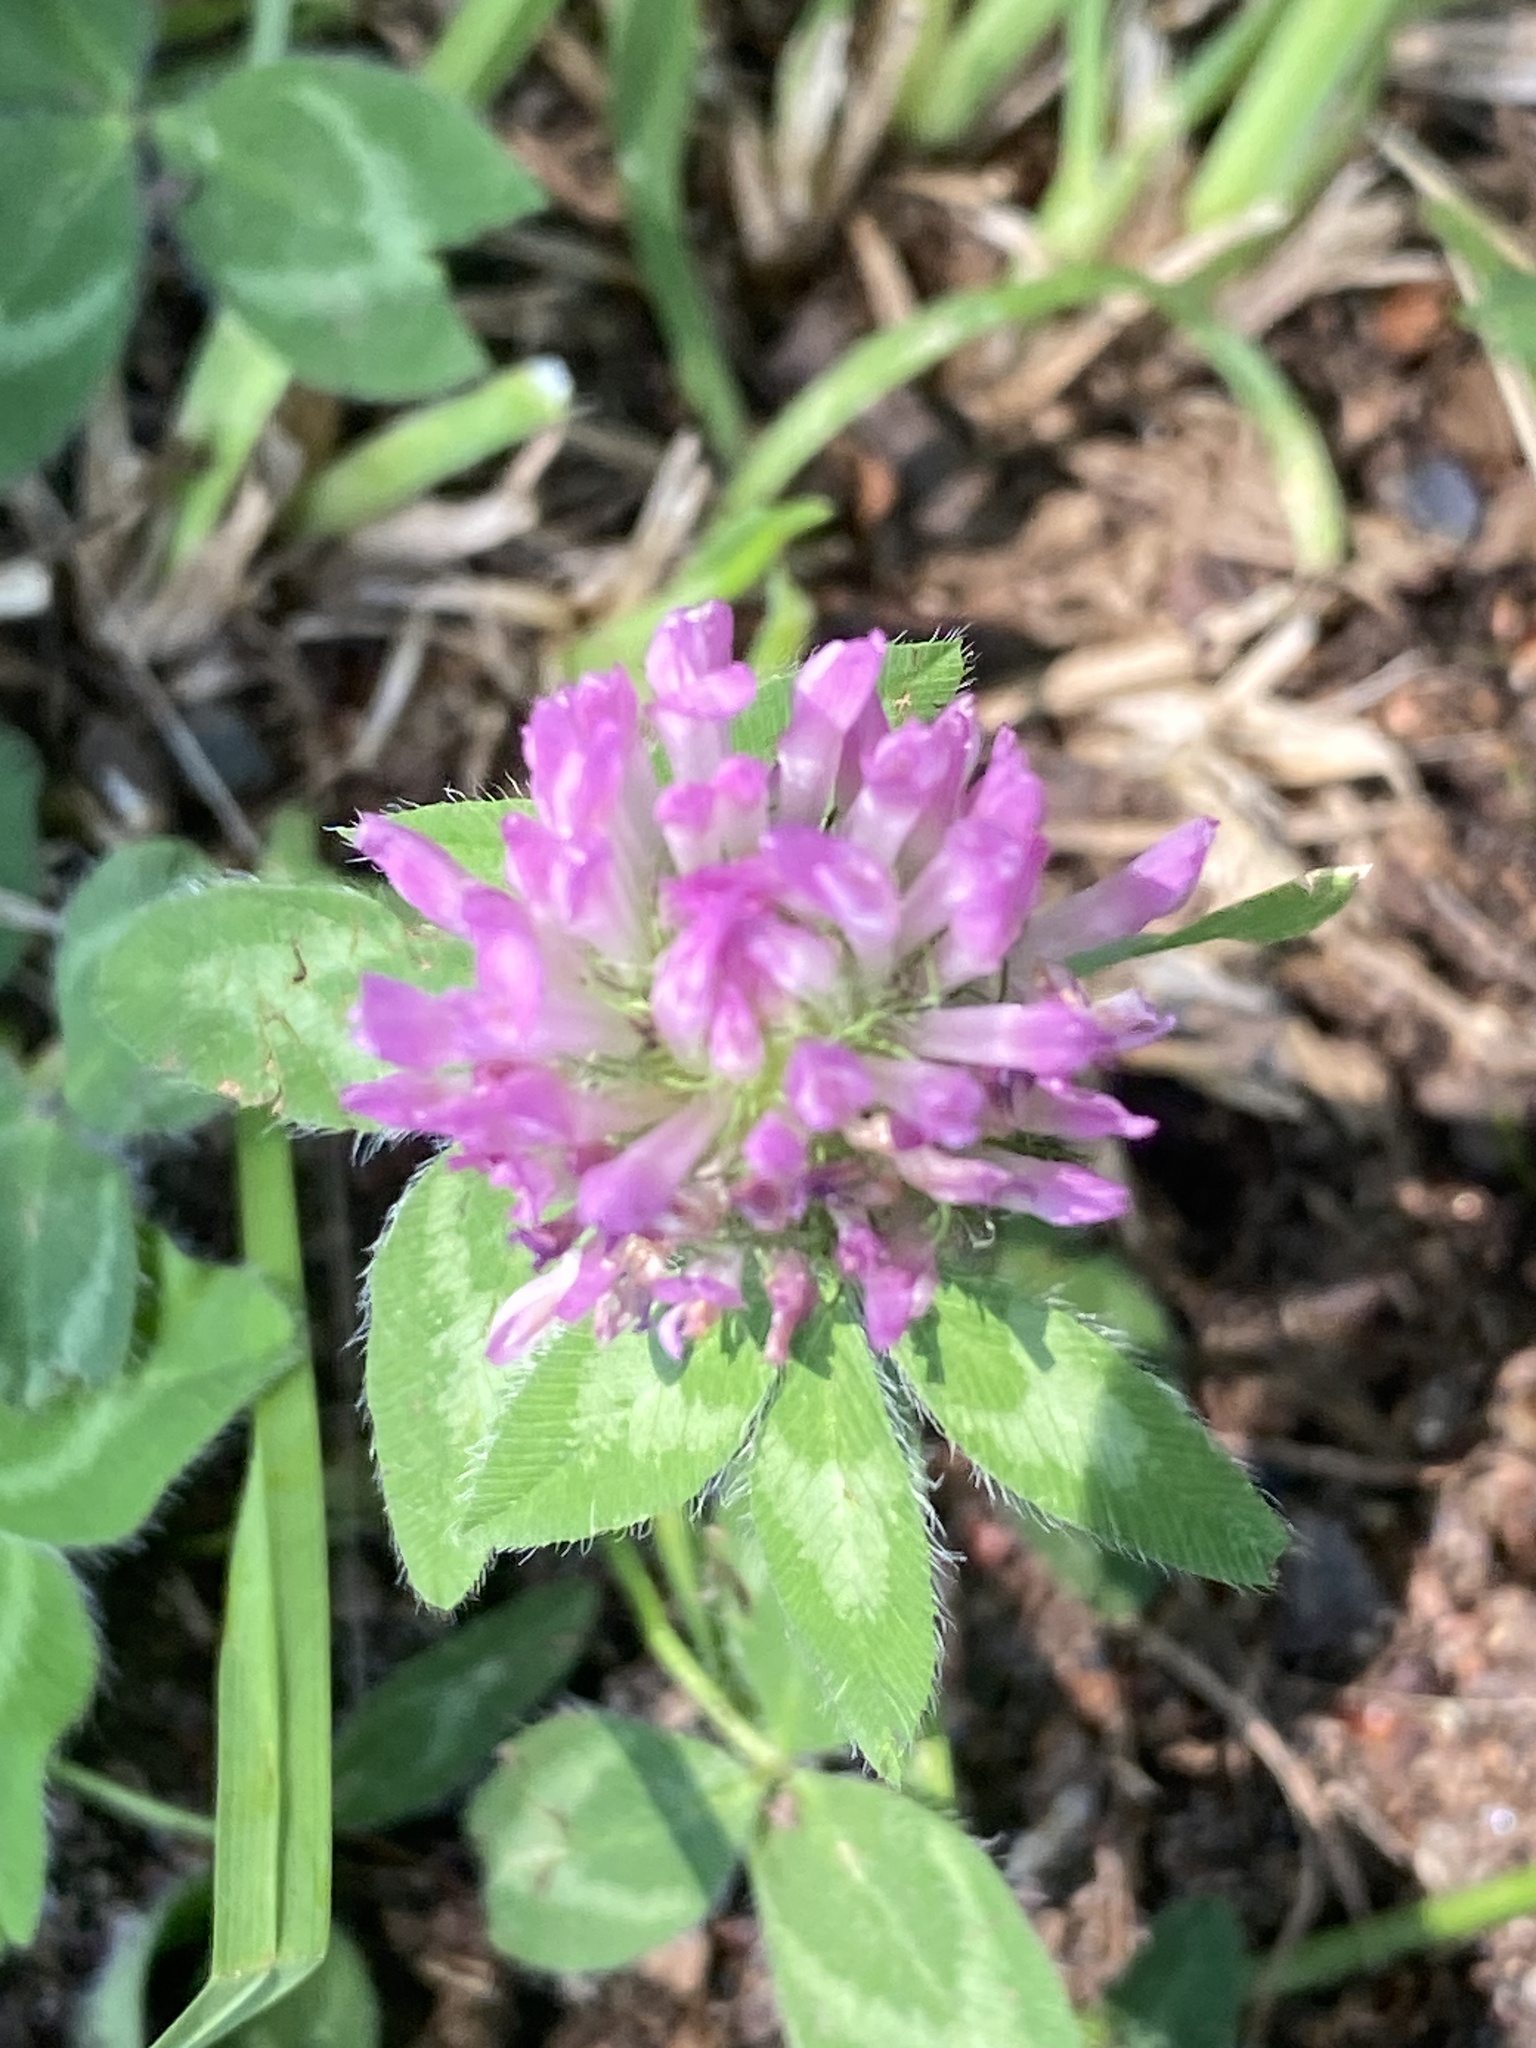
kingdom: Plantae
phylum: Tracheophyta
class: Magnoliopsida
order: Fabales
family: Fabaceae
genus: Trifolium
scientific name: Trifolium pratense
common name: Red clover
